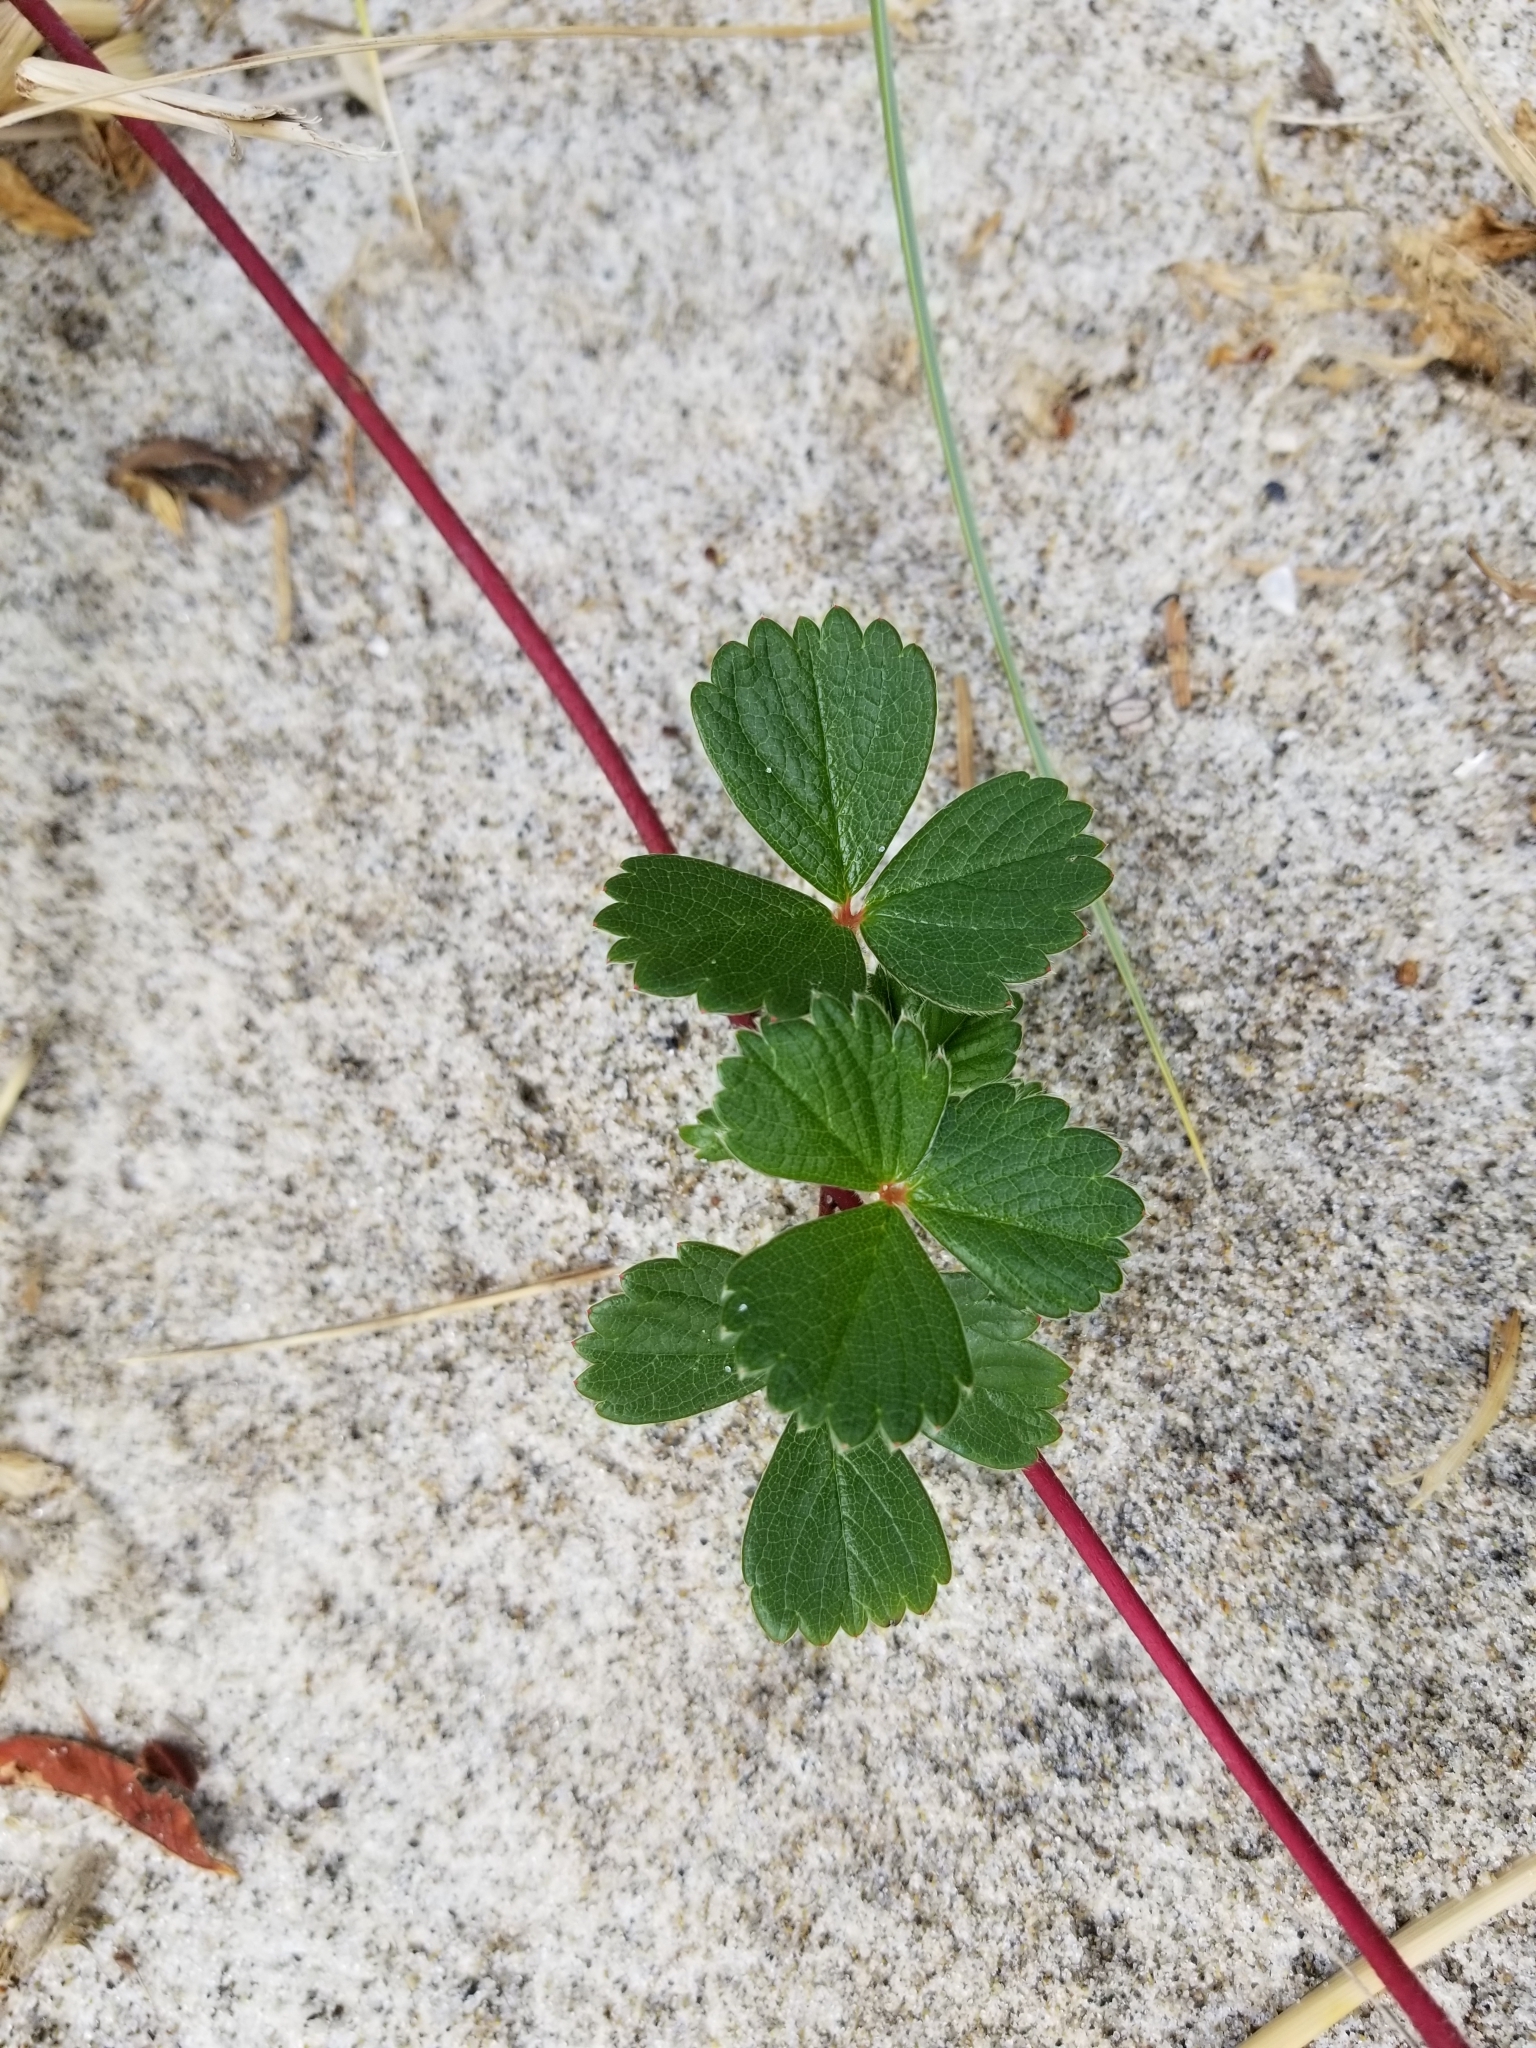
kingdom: Plantae
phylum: Tracheophyta
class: Magnoliopsida
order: Rosales
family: Rosaceae
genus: Fragaria
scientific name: Fragaria chiloensis
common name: Beach strawberry
